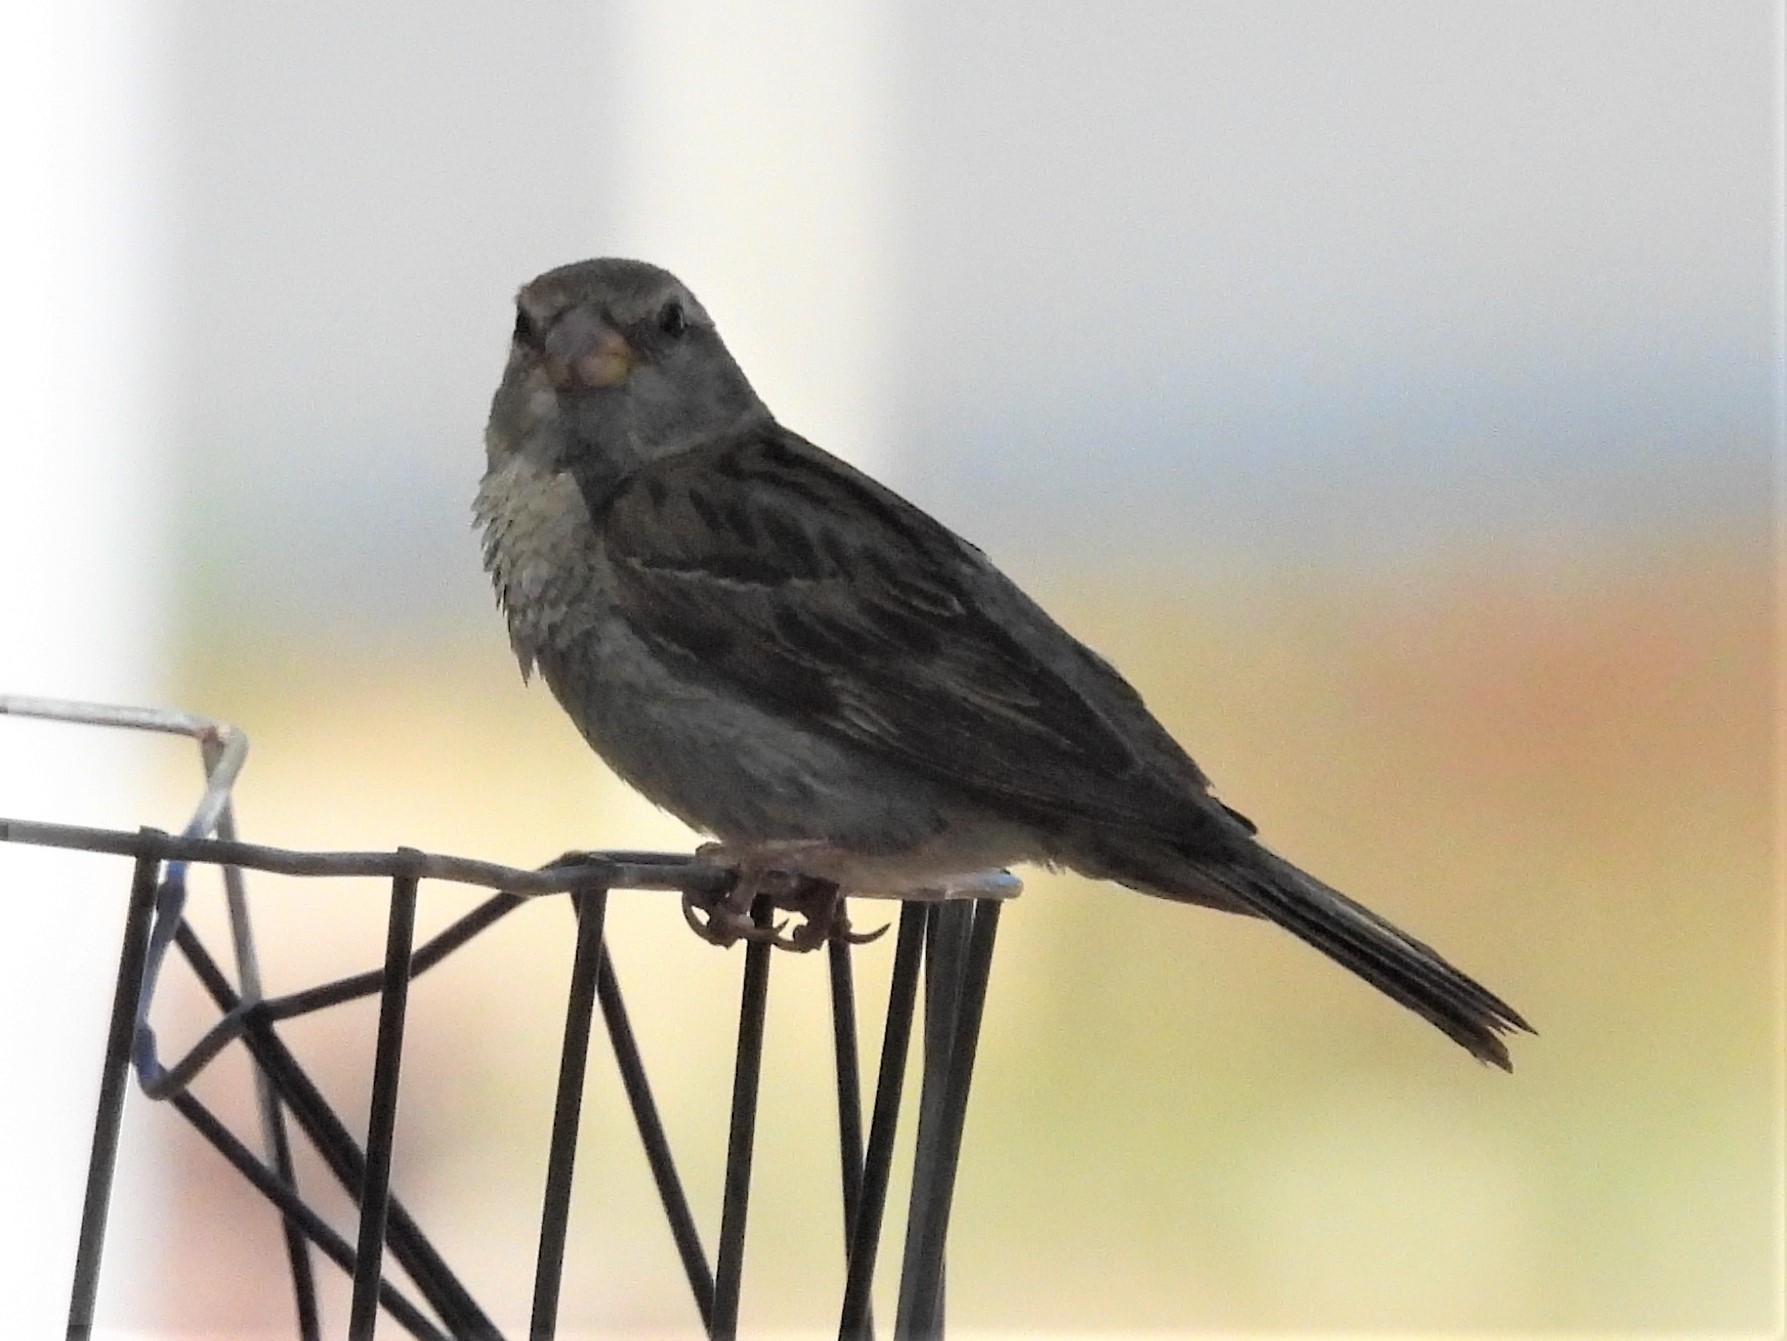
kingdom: Animalia
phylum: Chordata
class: Aves
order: Passeriformes
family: Passeridae
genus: Passer
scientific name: Passer domesticus
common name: House sparrow
